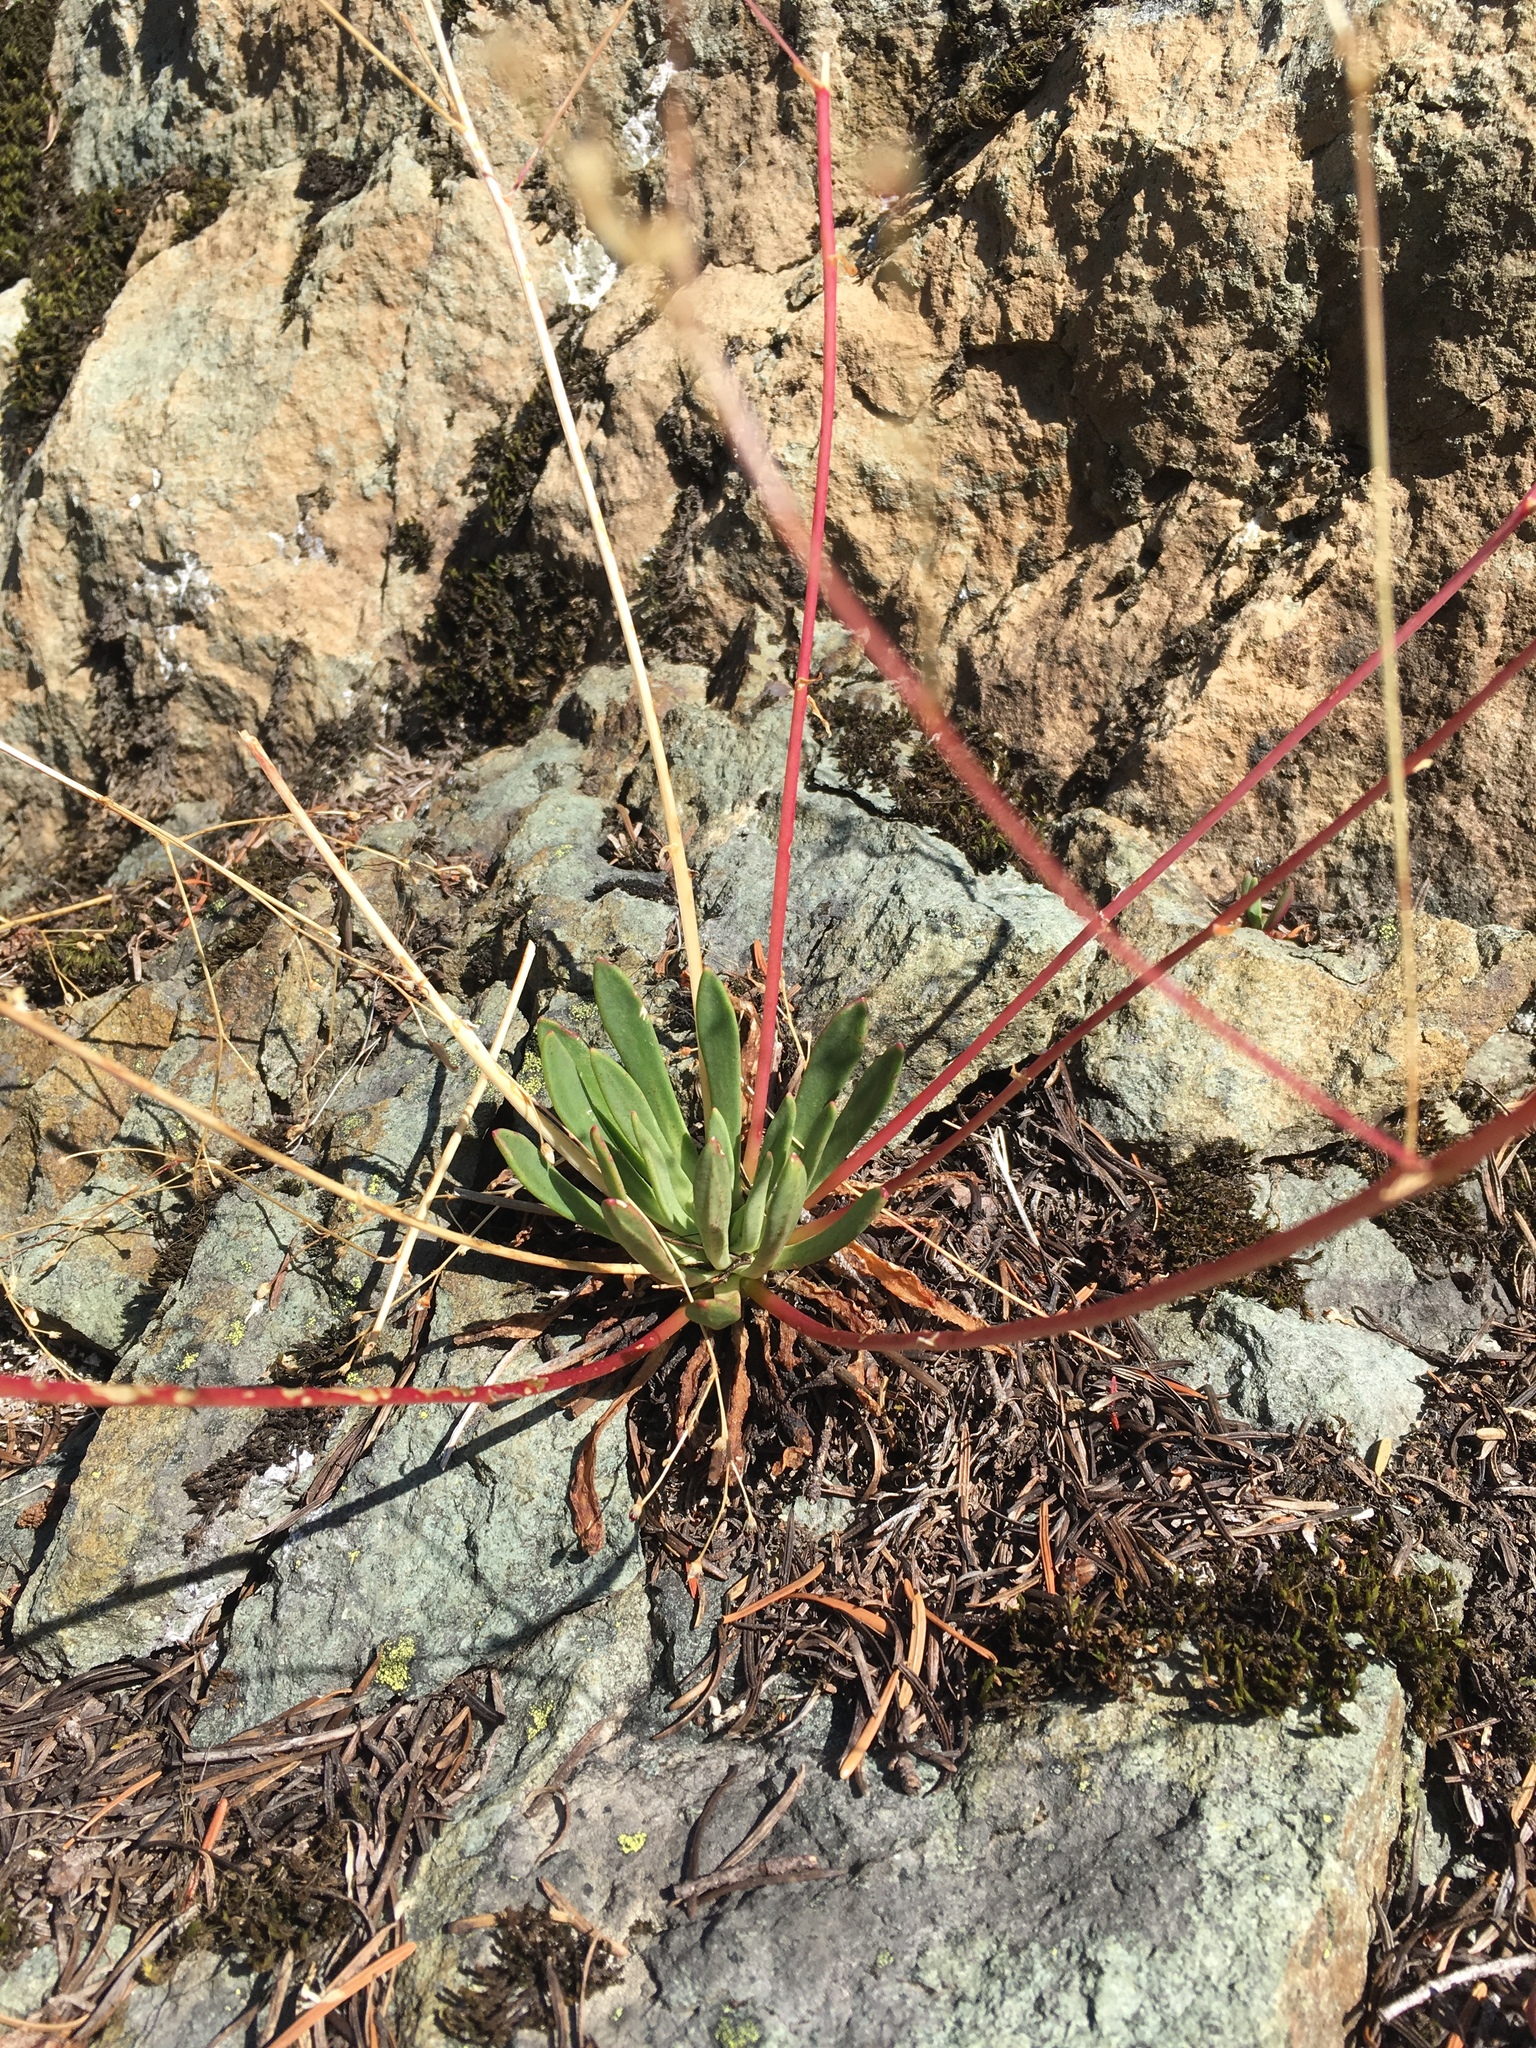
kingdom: Plantae
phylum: Tracheophyta
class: Magnoliopsida
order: Caryophyllales
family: Montiaceae
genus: Lewisia
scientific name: Lewisia columbiana
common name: Columbia lewisia
